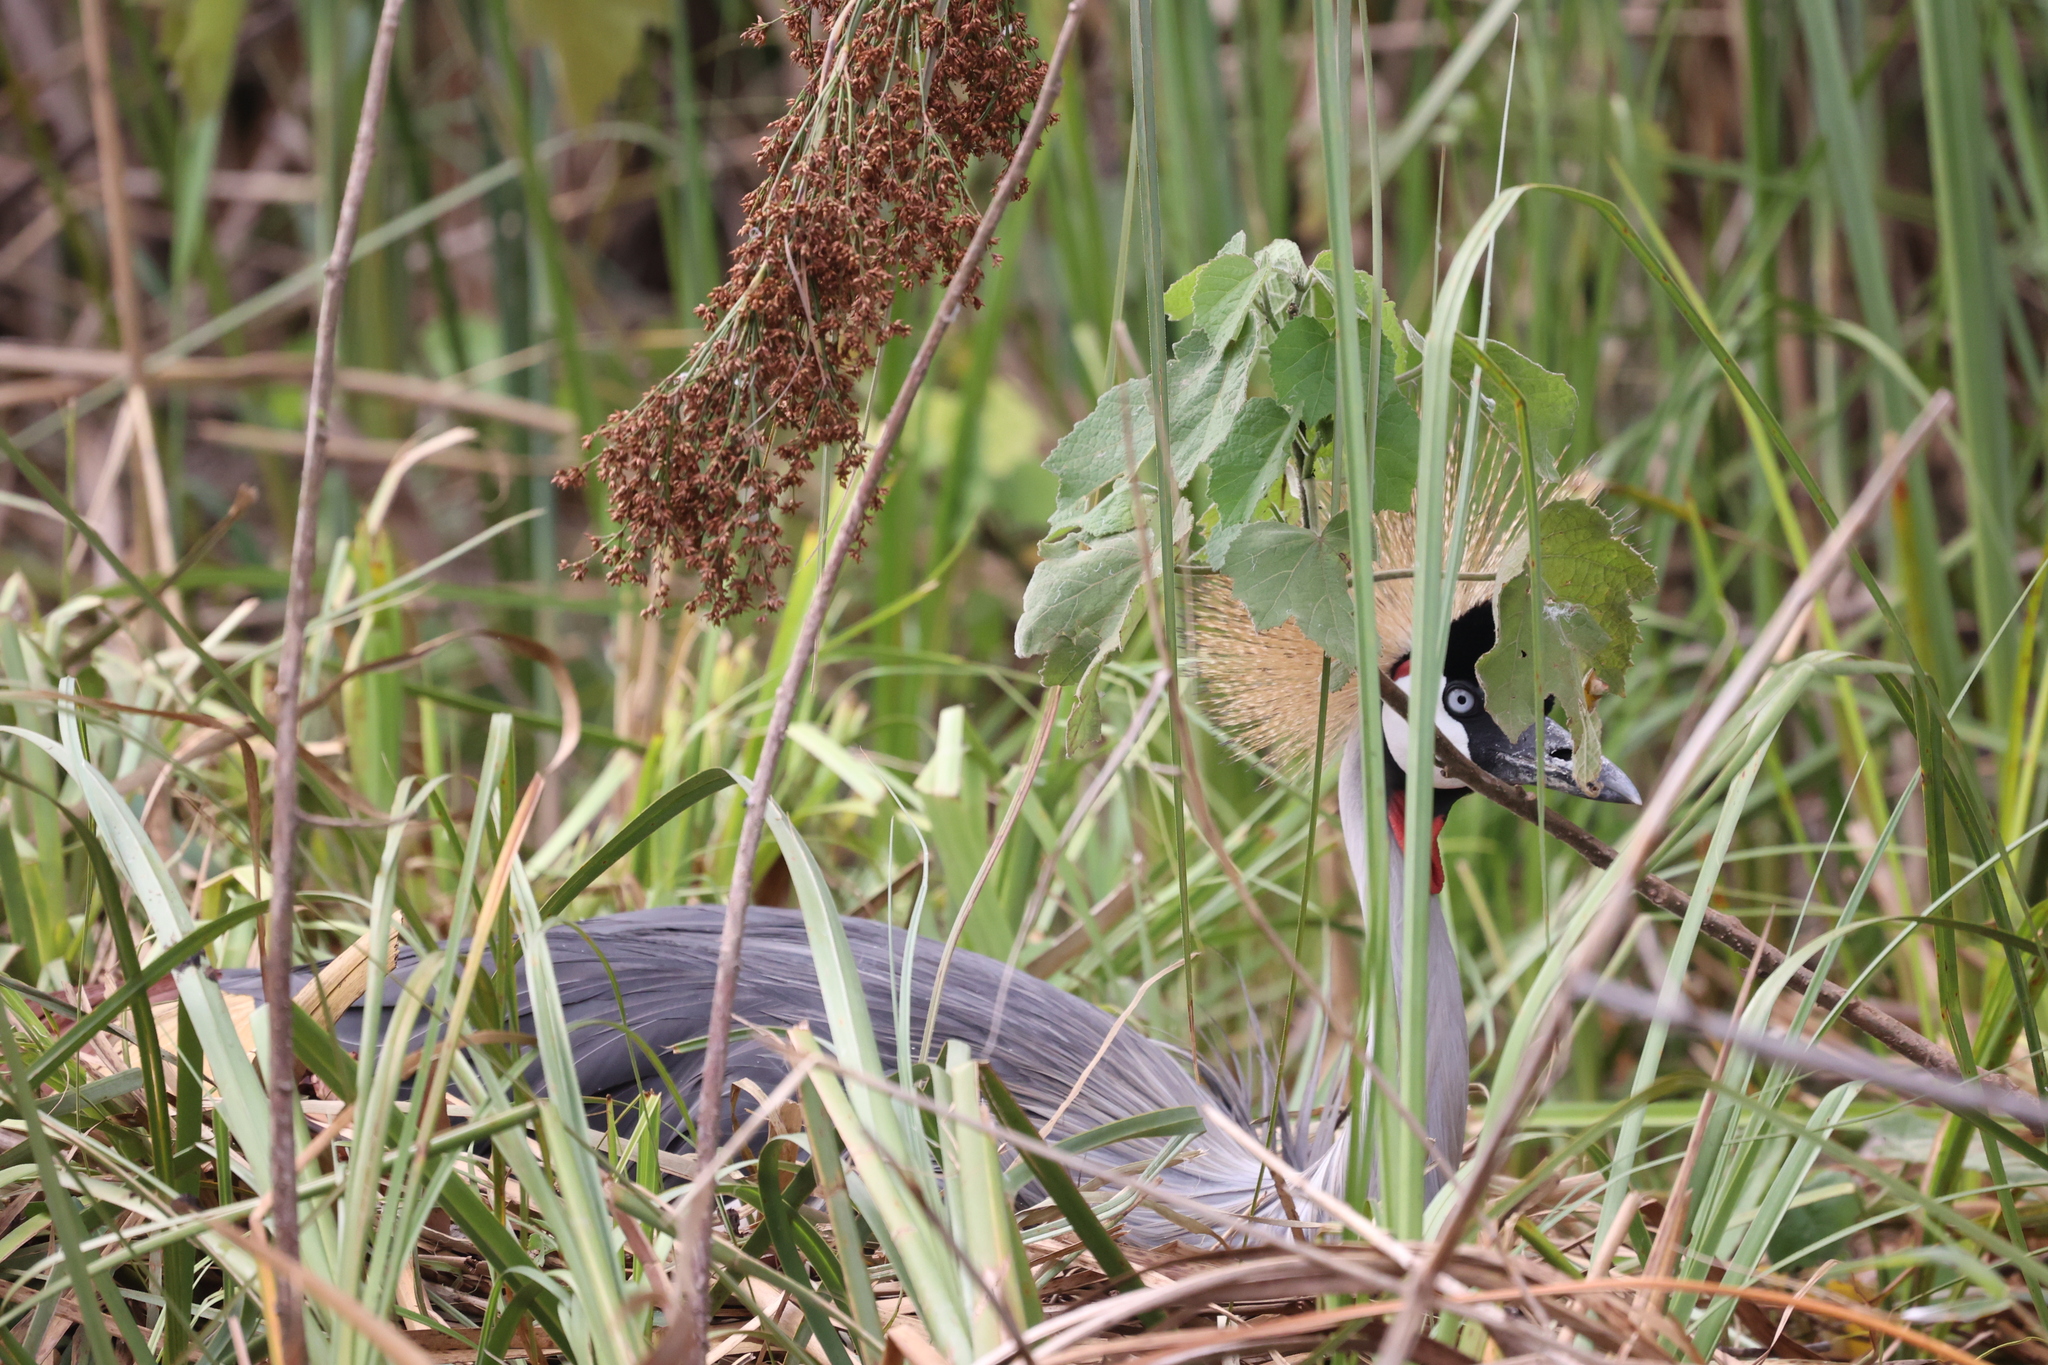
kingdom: Animalia
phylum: Chordata
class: Aves
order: Gruiformes
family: Gruidae
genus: Balearica
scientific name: Balearica regulorum
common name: Grey crowned crane
